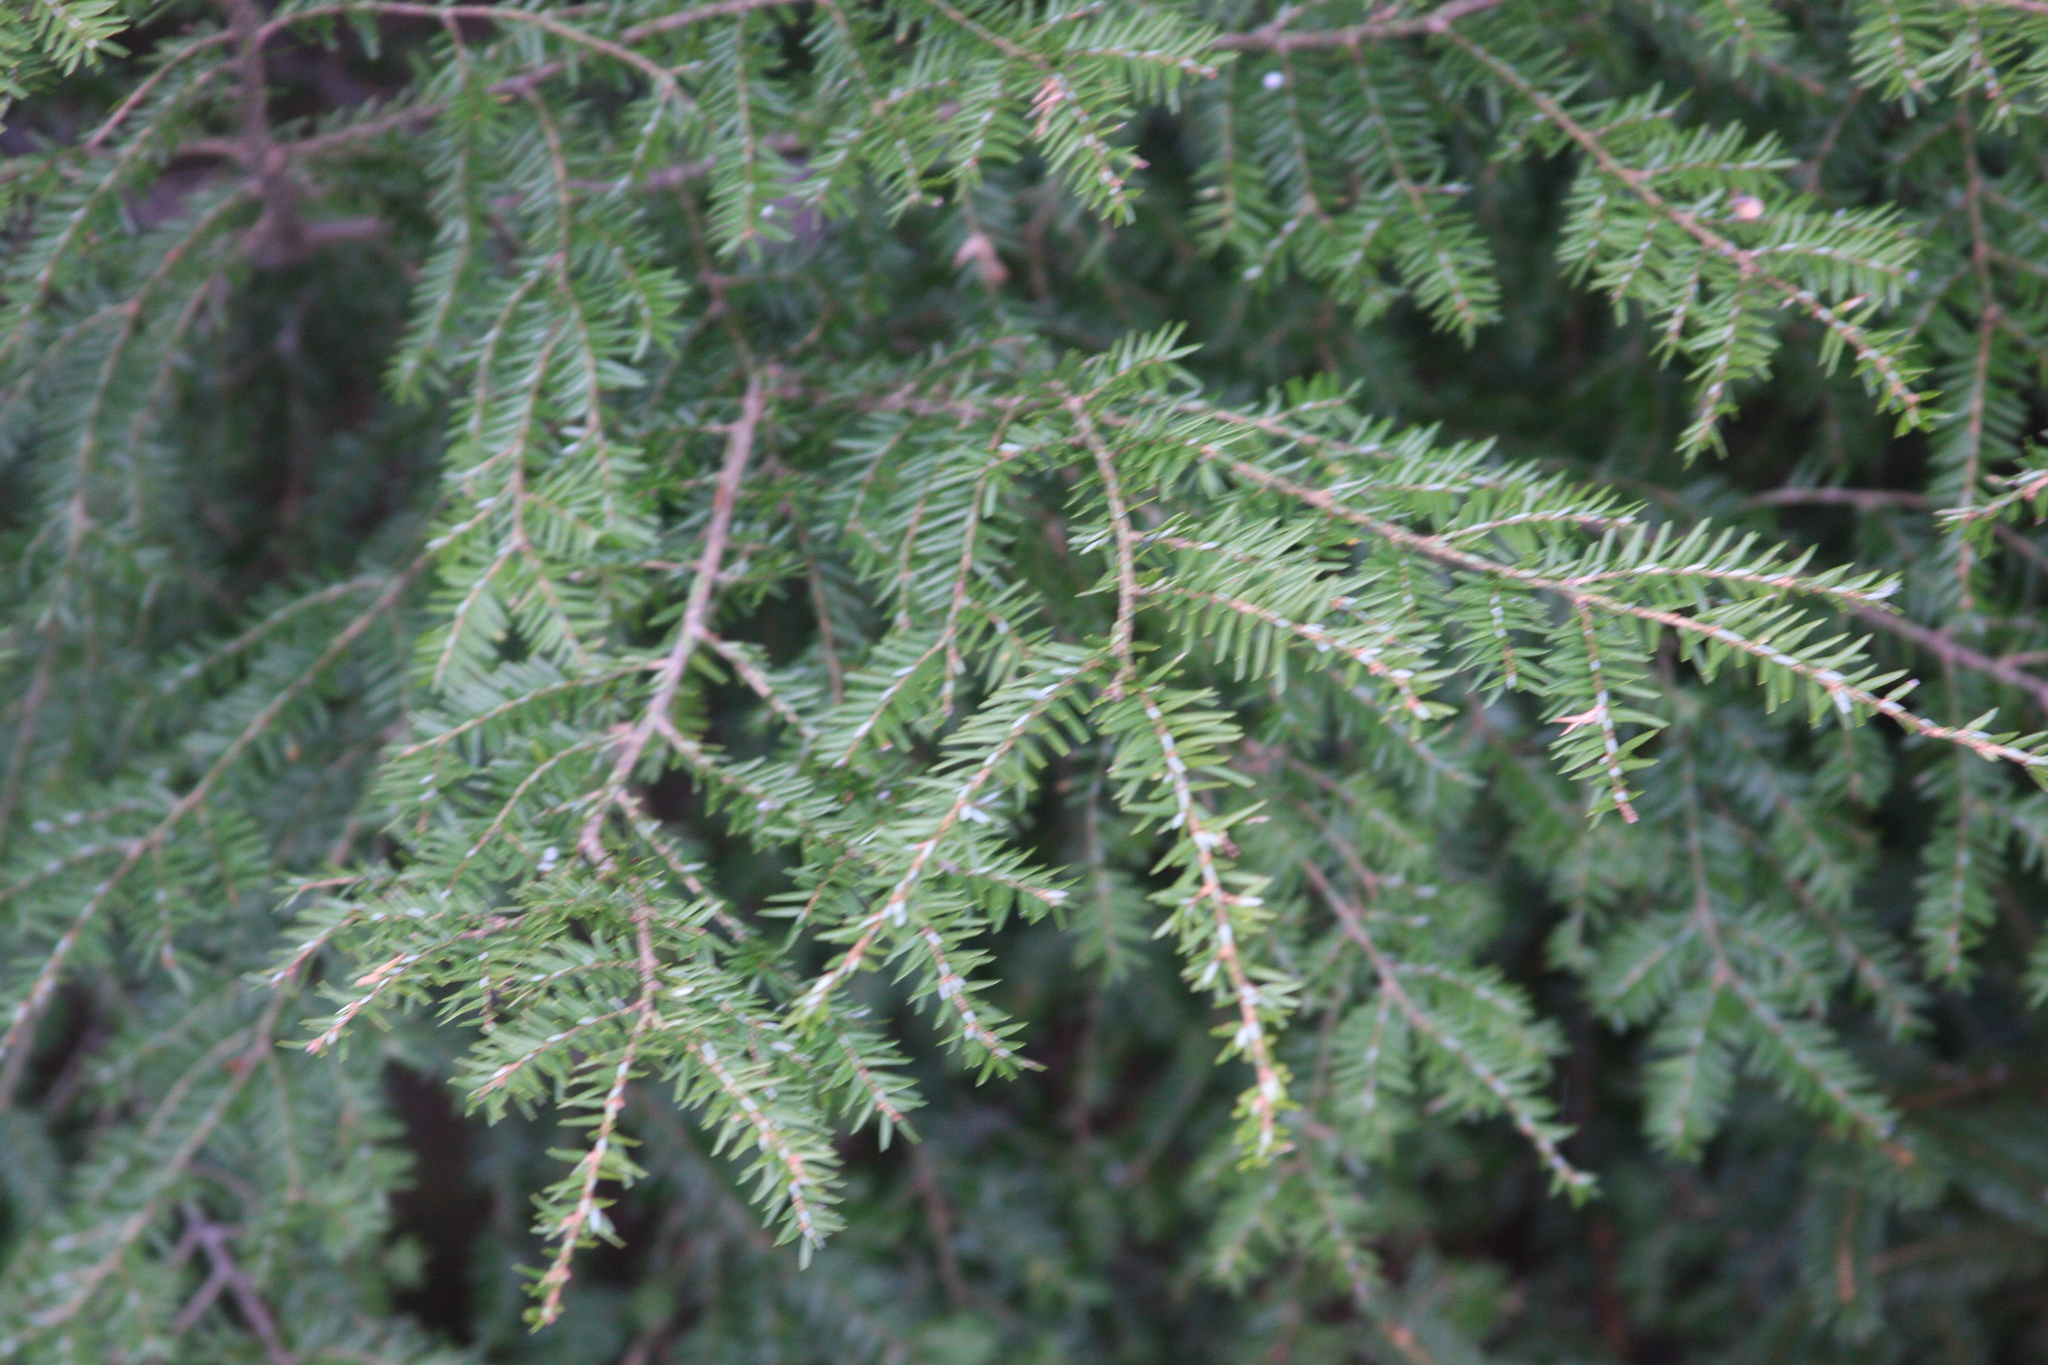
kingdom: Plantae
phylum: Tracheophyta
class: Pinopsida
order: Pinales
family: Pinaceae
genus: Tsuga
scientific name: Tsuga canadensis
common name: Eastern hemlock
